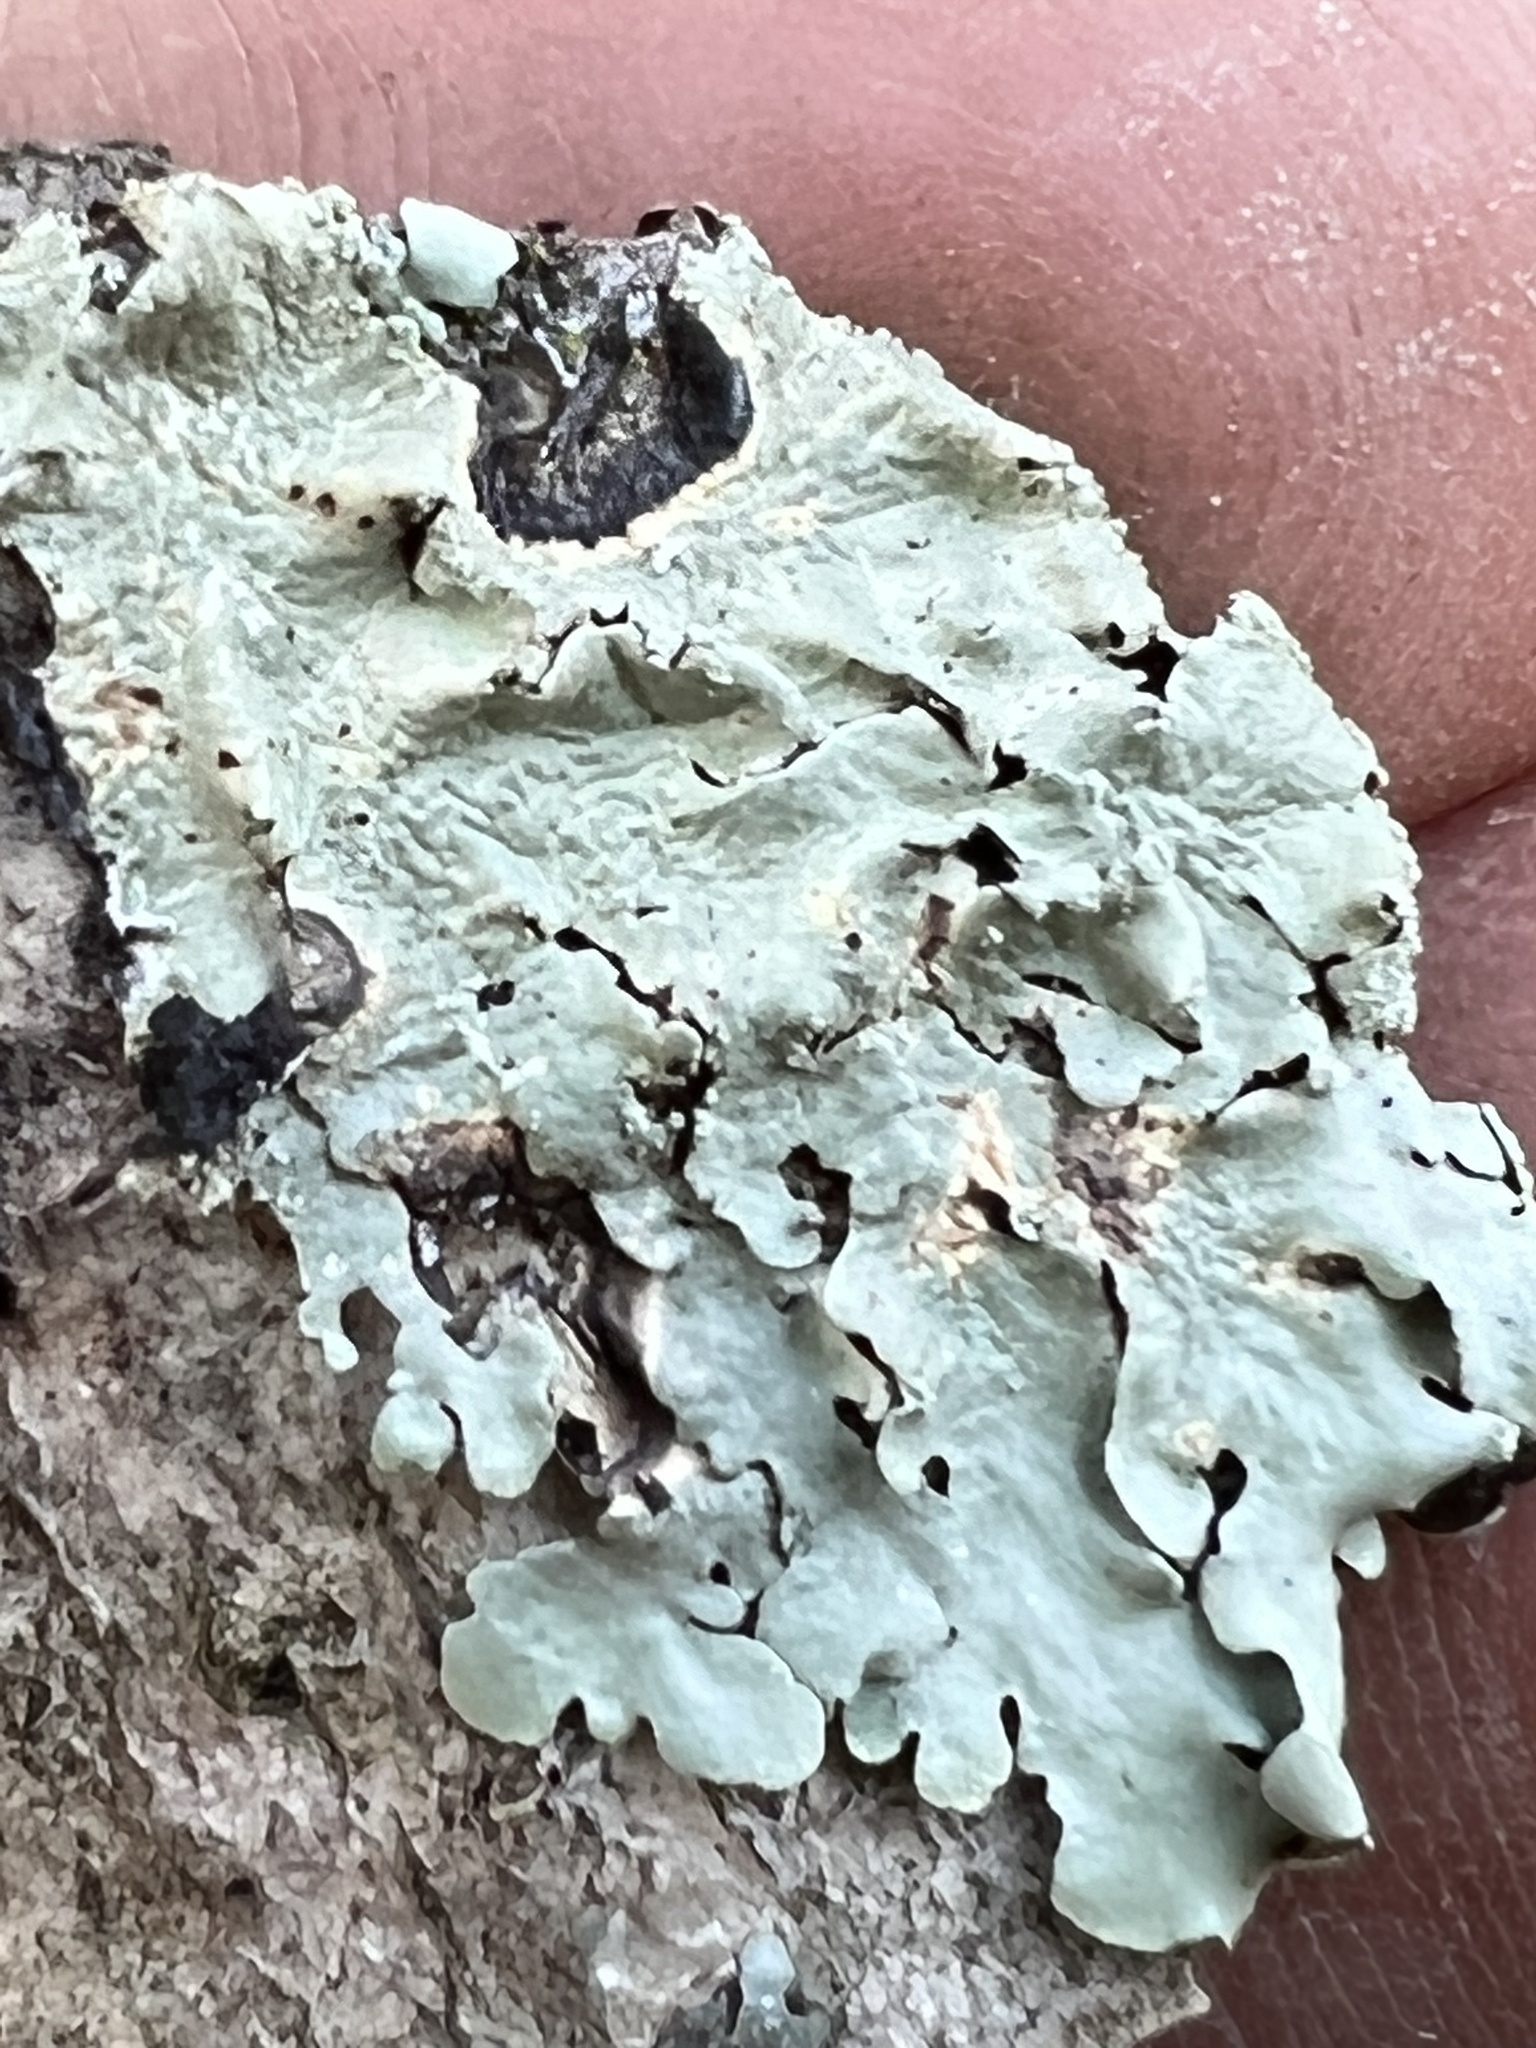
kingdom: Fungi
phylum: Ascomycota
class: Lecanoromycetes
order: Lecanorales
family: Parmeliaceae
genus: Flavoparmelia
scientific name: Flavoparmelia caperata
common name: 40-mile per hour lichen
